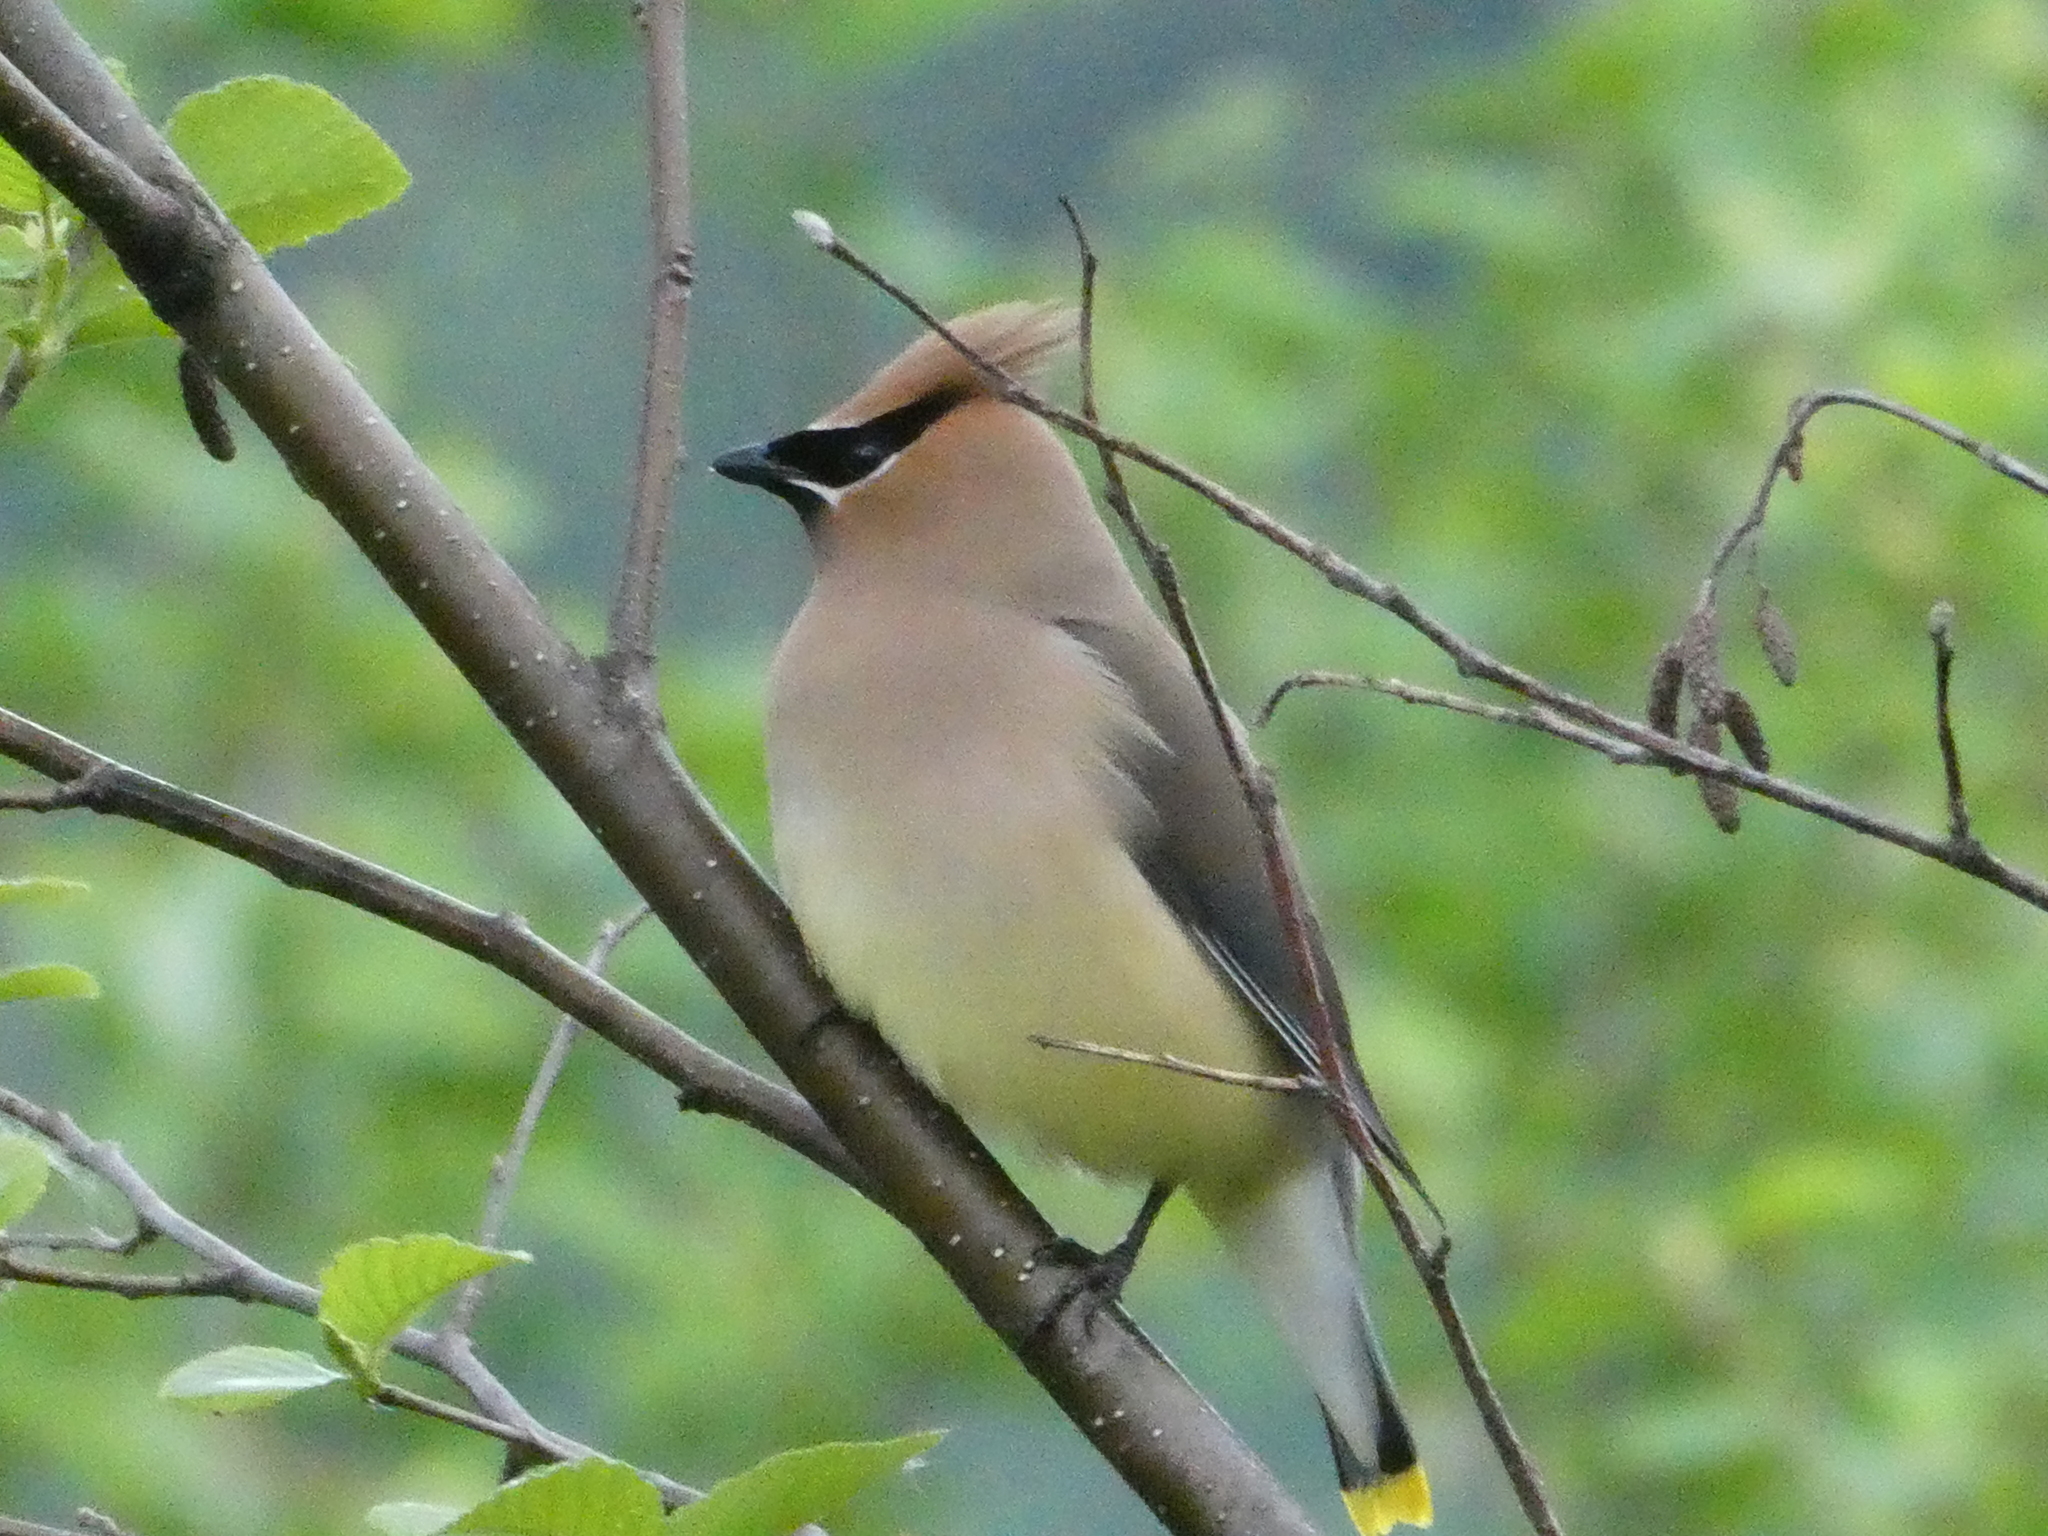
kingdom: Animalia
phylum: Chordata
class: Aves
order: Passeriformes
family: Bombycillidae
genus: Bombycilla
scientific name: Bombycilla cedrorum
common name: Cedar waxwing
